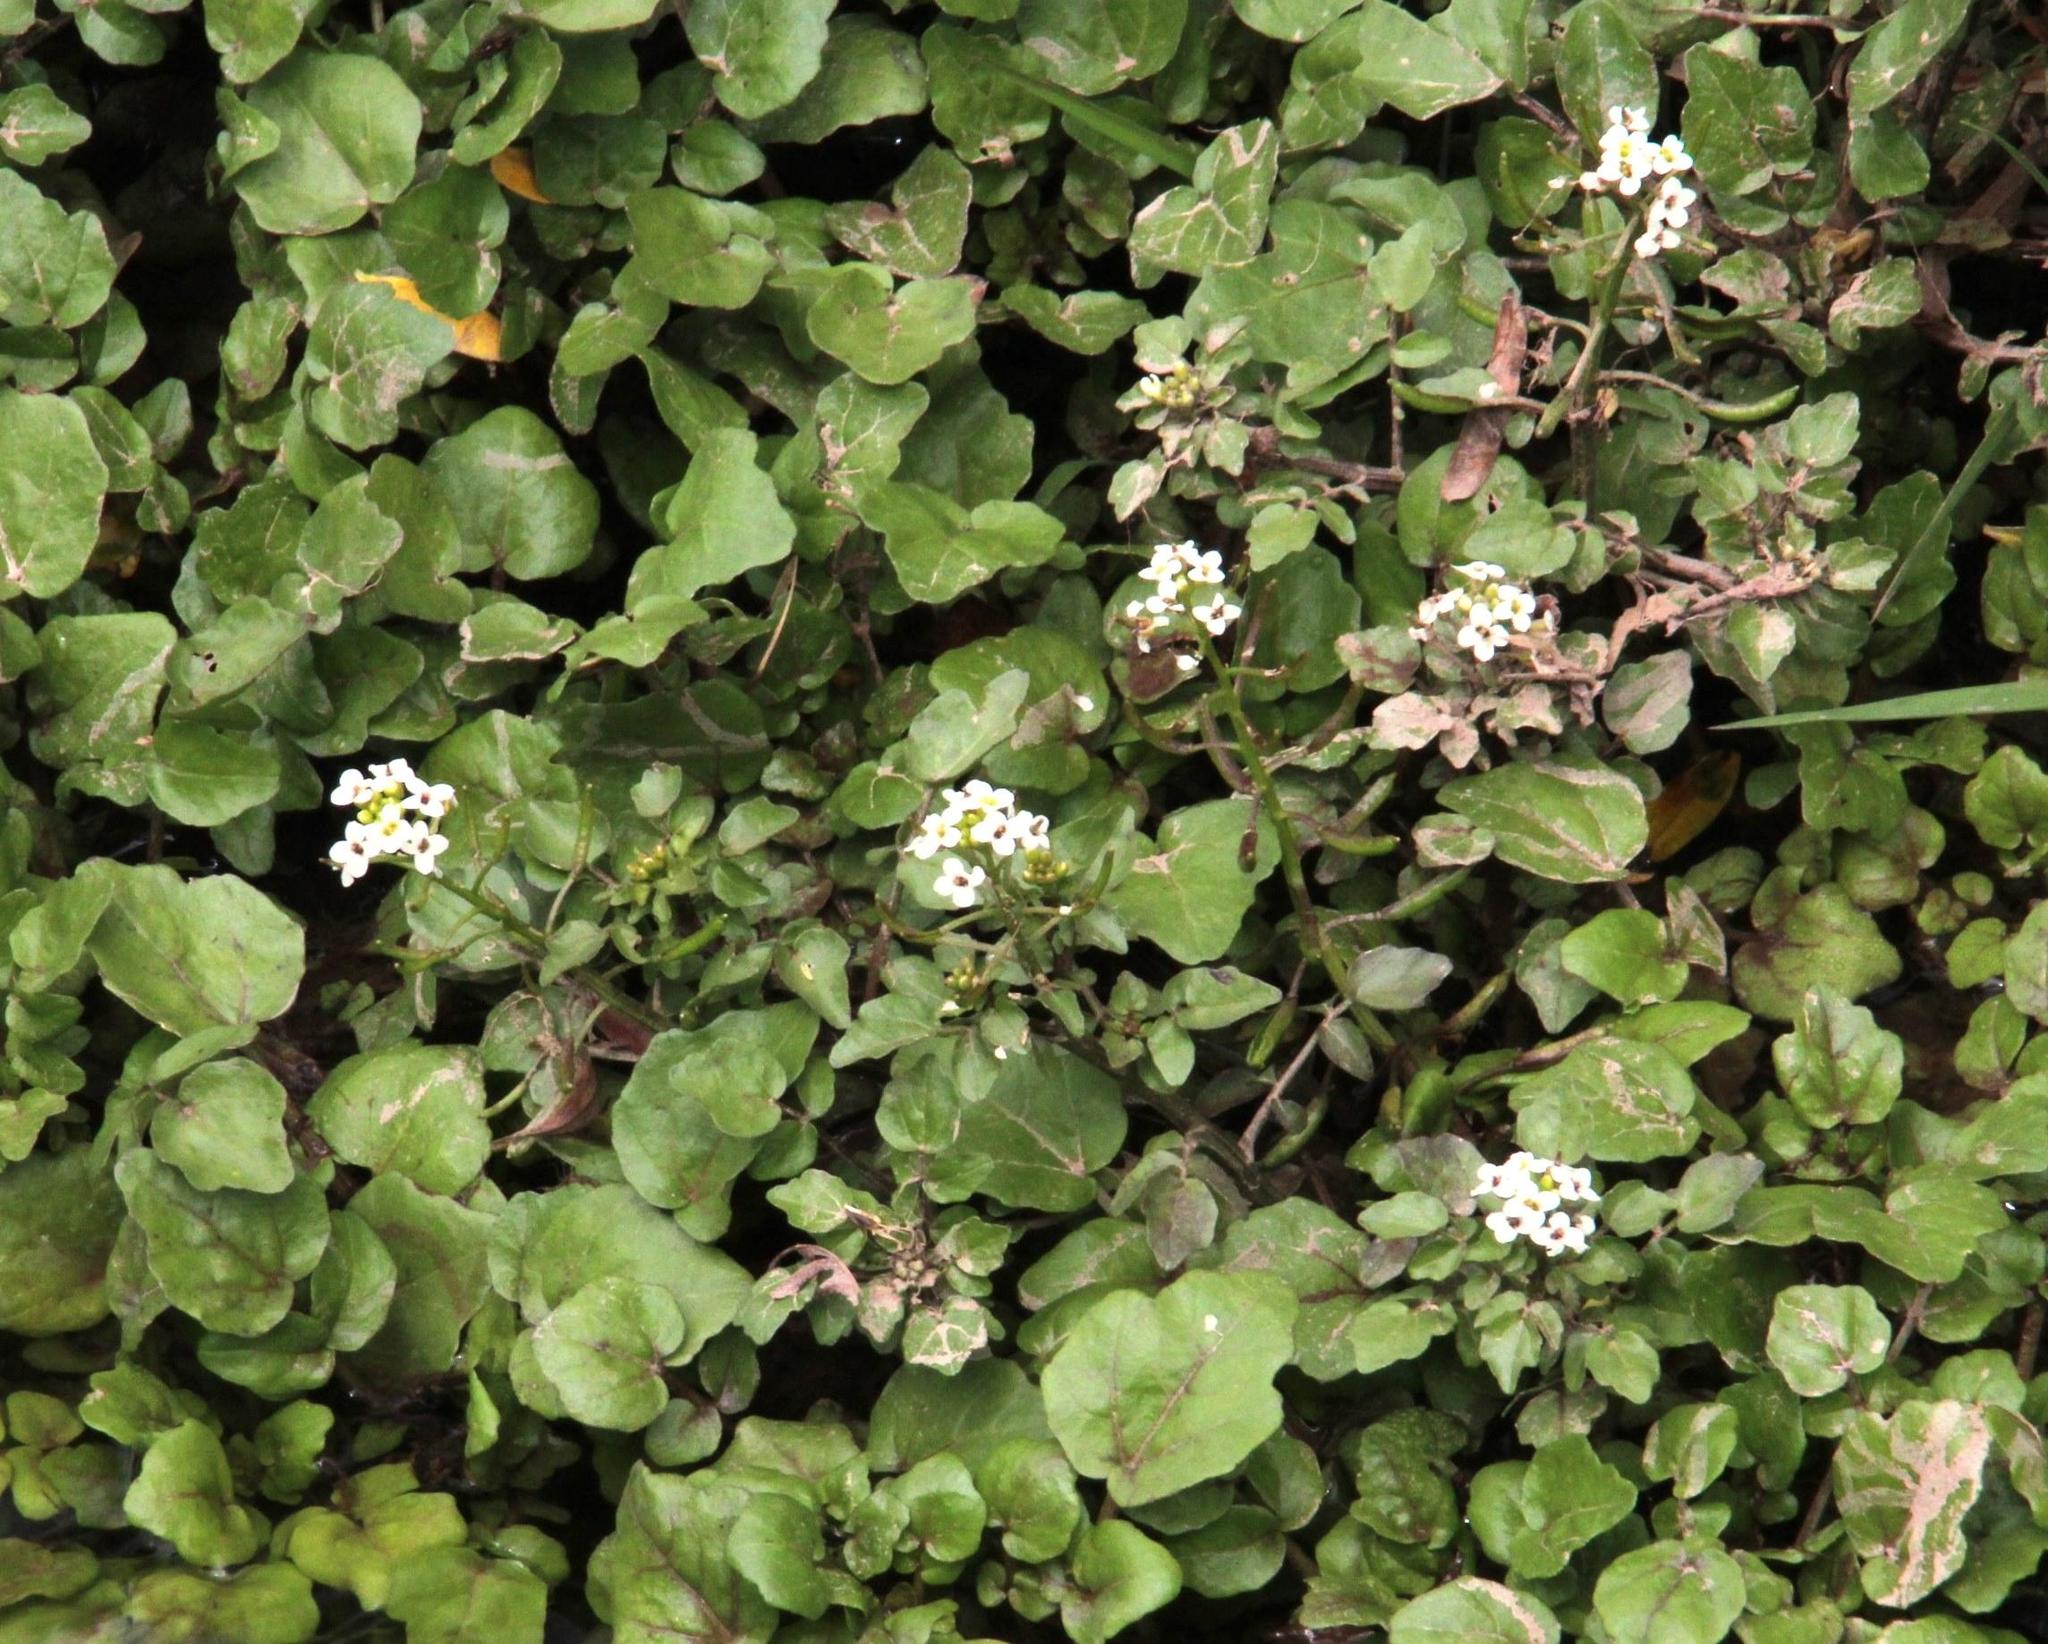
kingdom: Plantae
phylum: Tracheophyta
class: Magnoliopsida
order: Brassicales
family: Brassicaceae
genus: Nasturtium
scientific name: Nasturtium officinale
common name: Watercress
